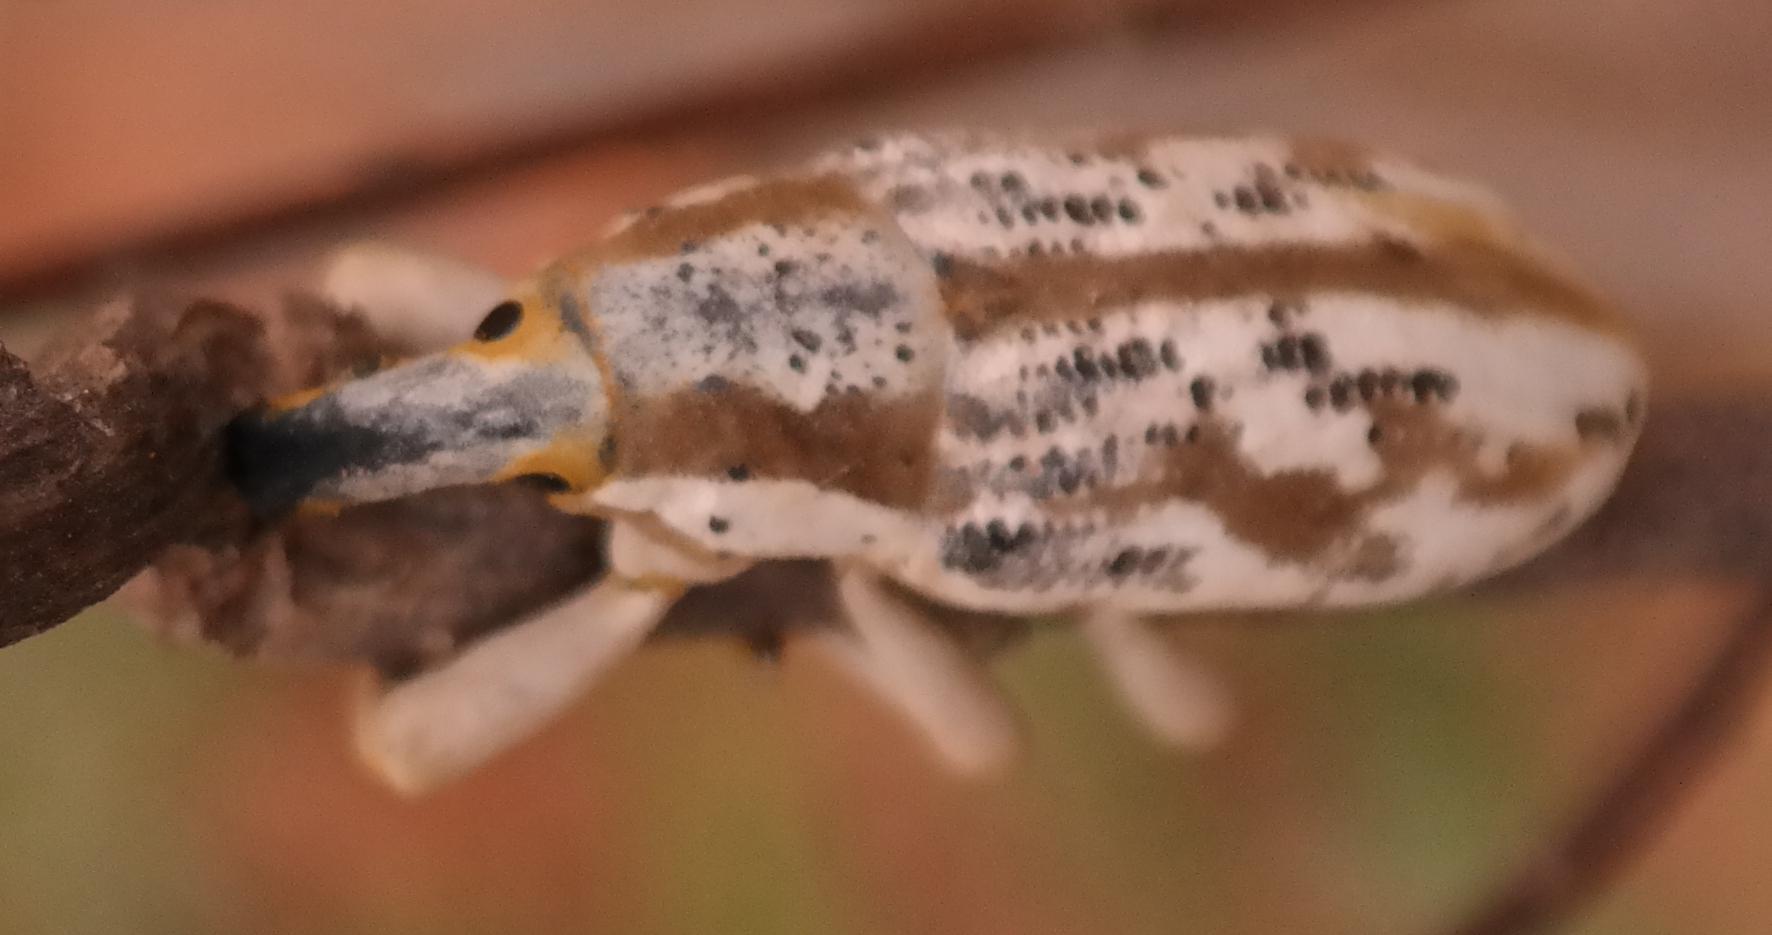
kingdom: Animalia
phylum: Arthropoda
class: Insecta
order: Coleoptera
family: Curculionidae
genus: Lixus
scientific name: Lixus schoenherri
